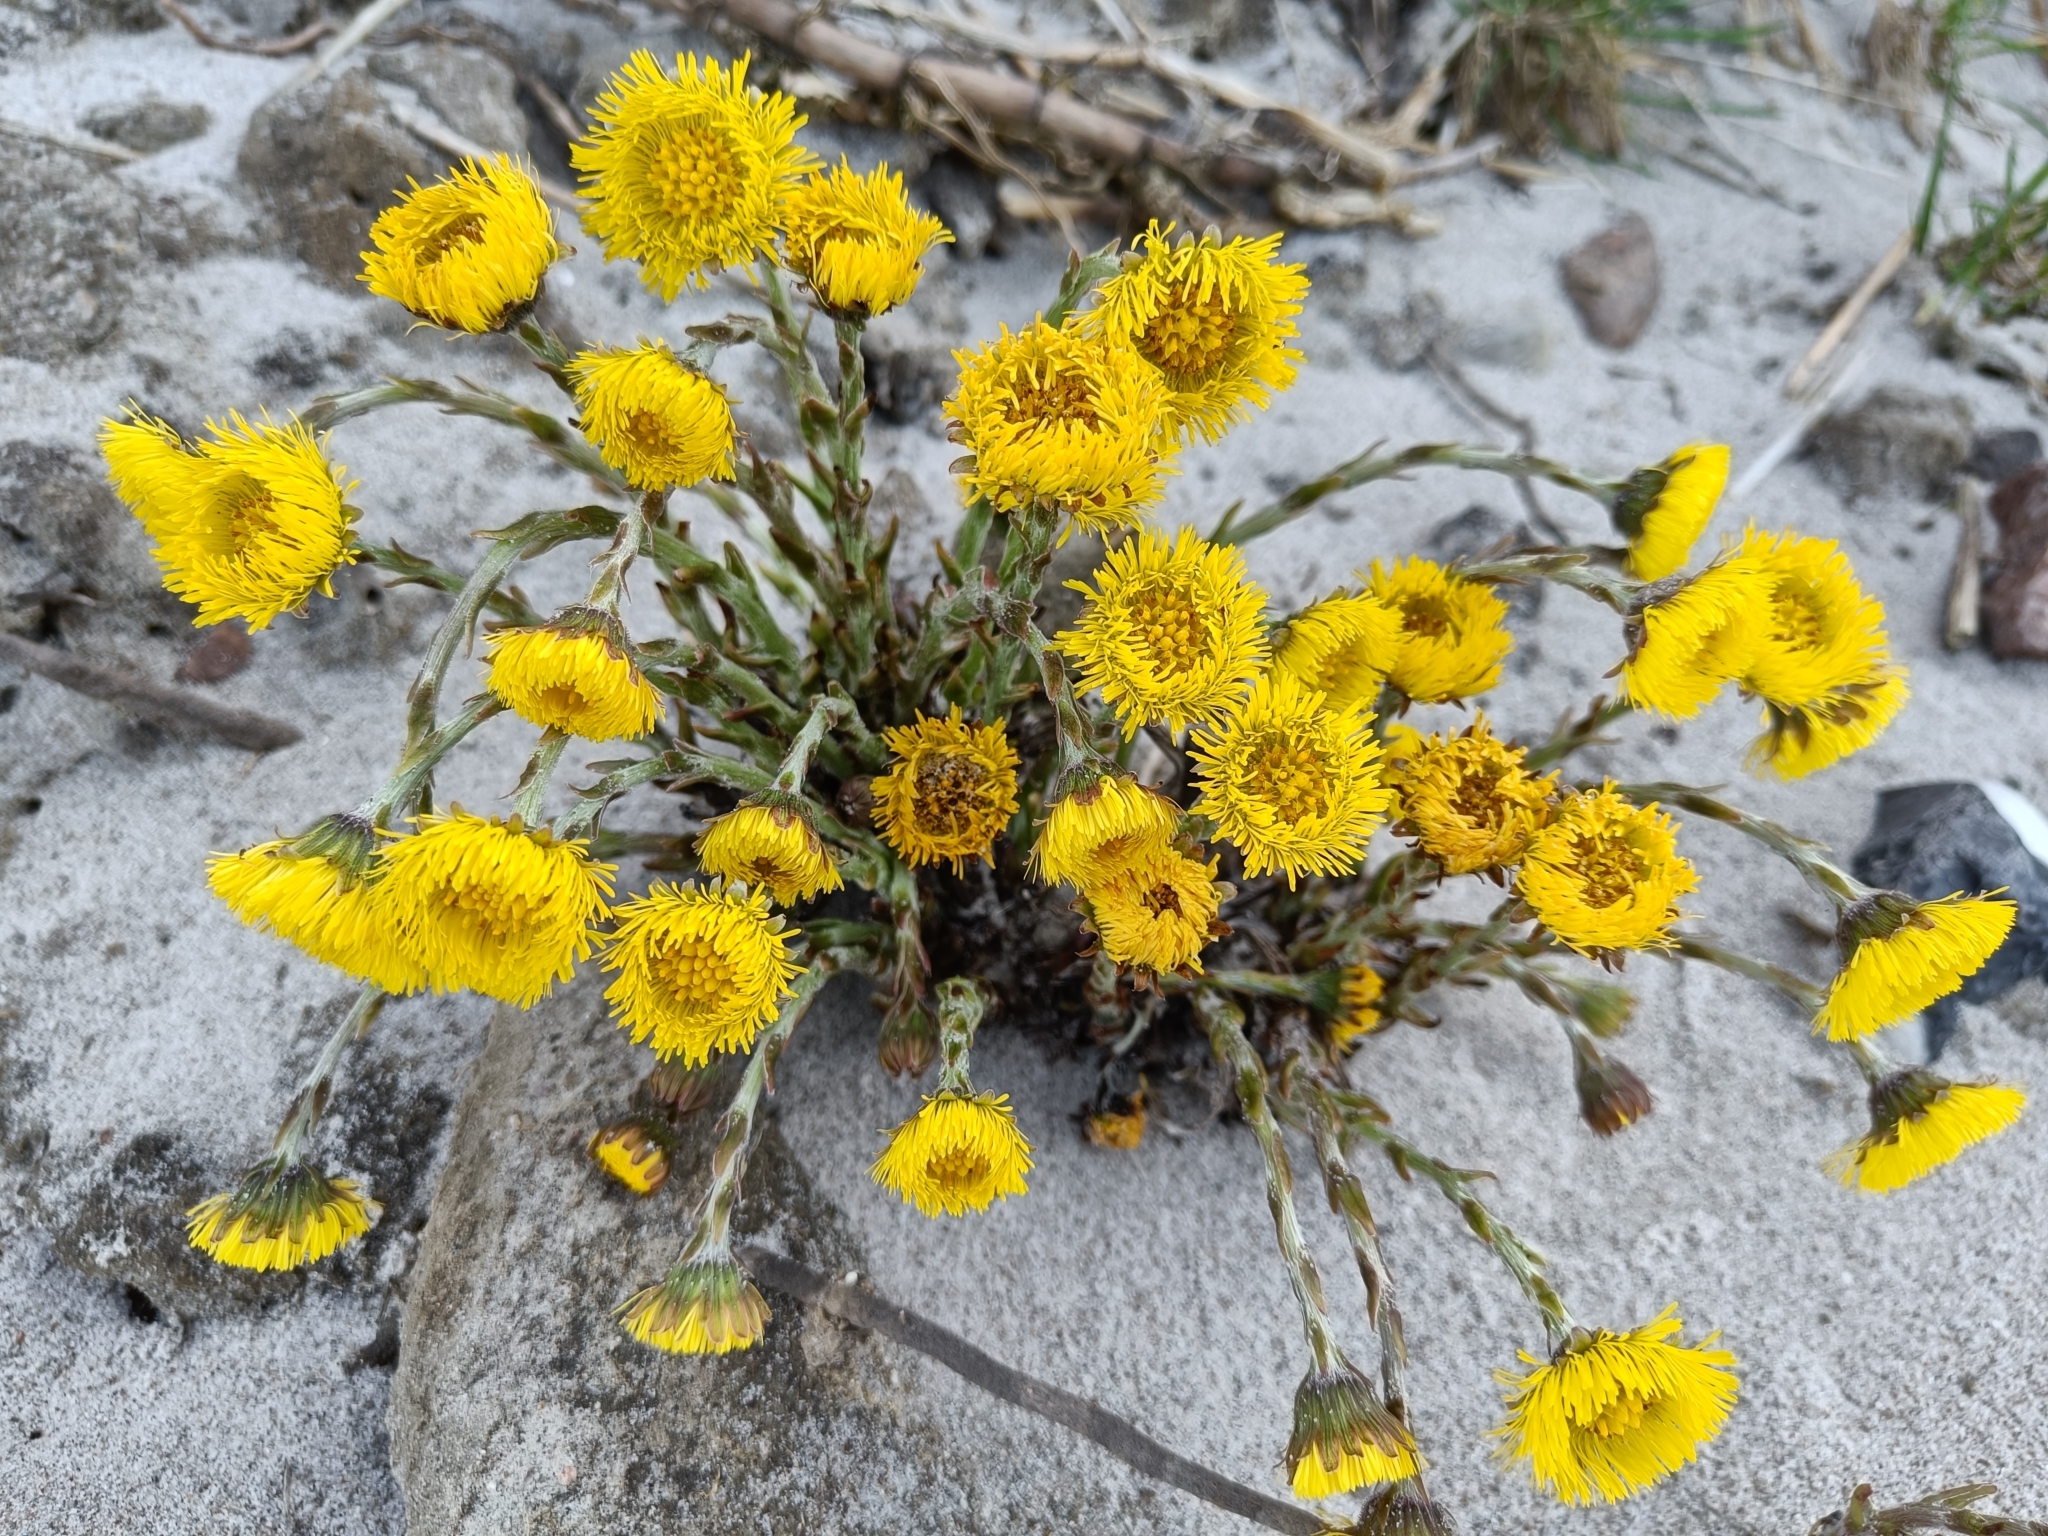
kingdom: Plantae
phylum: Tracheophyta
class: Magnoliopsida
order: Asterales
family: Asteraceae
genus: Tussilago
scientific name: Tussilago farfara
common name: Coltsfoot
